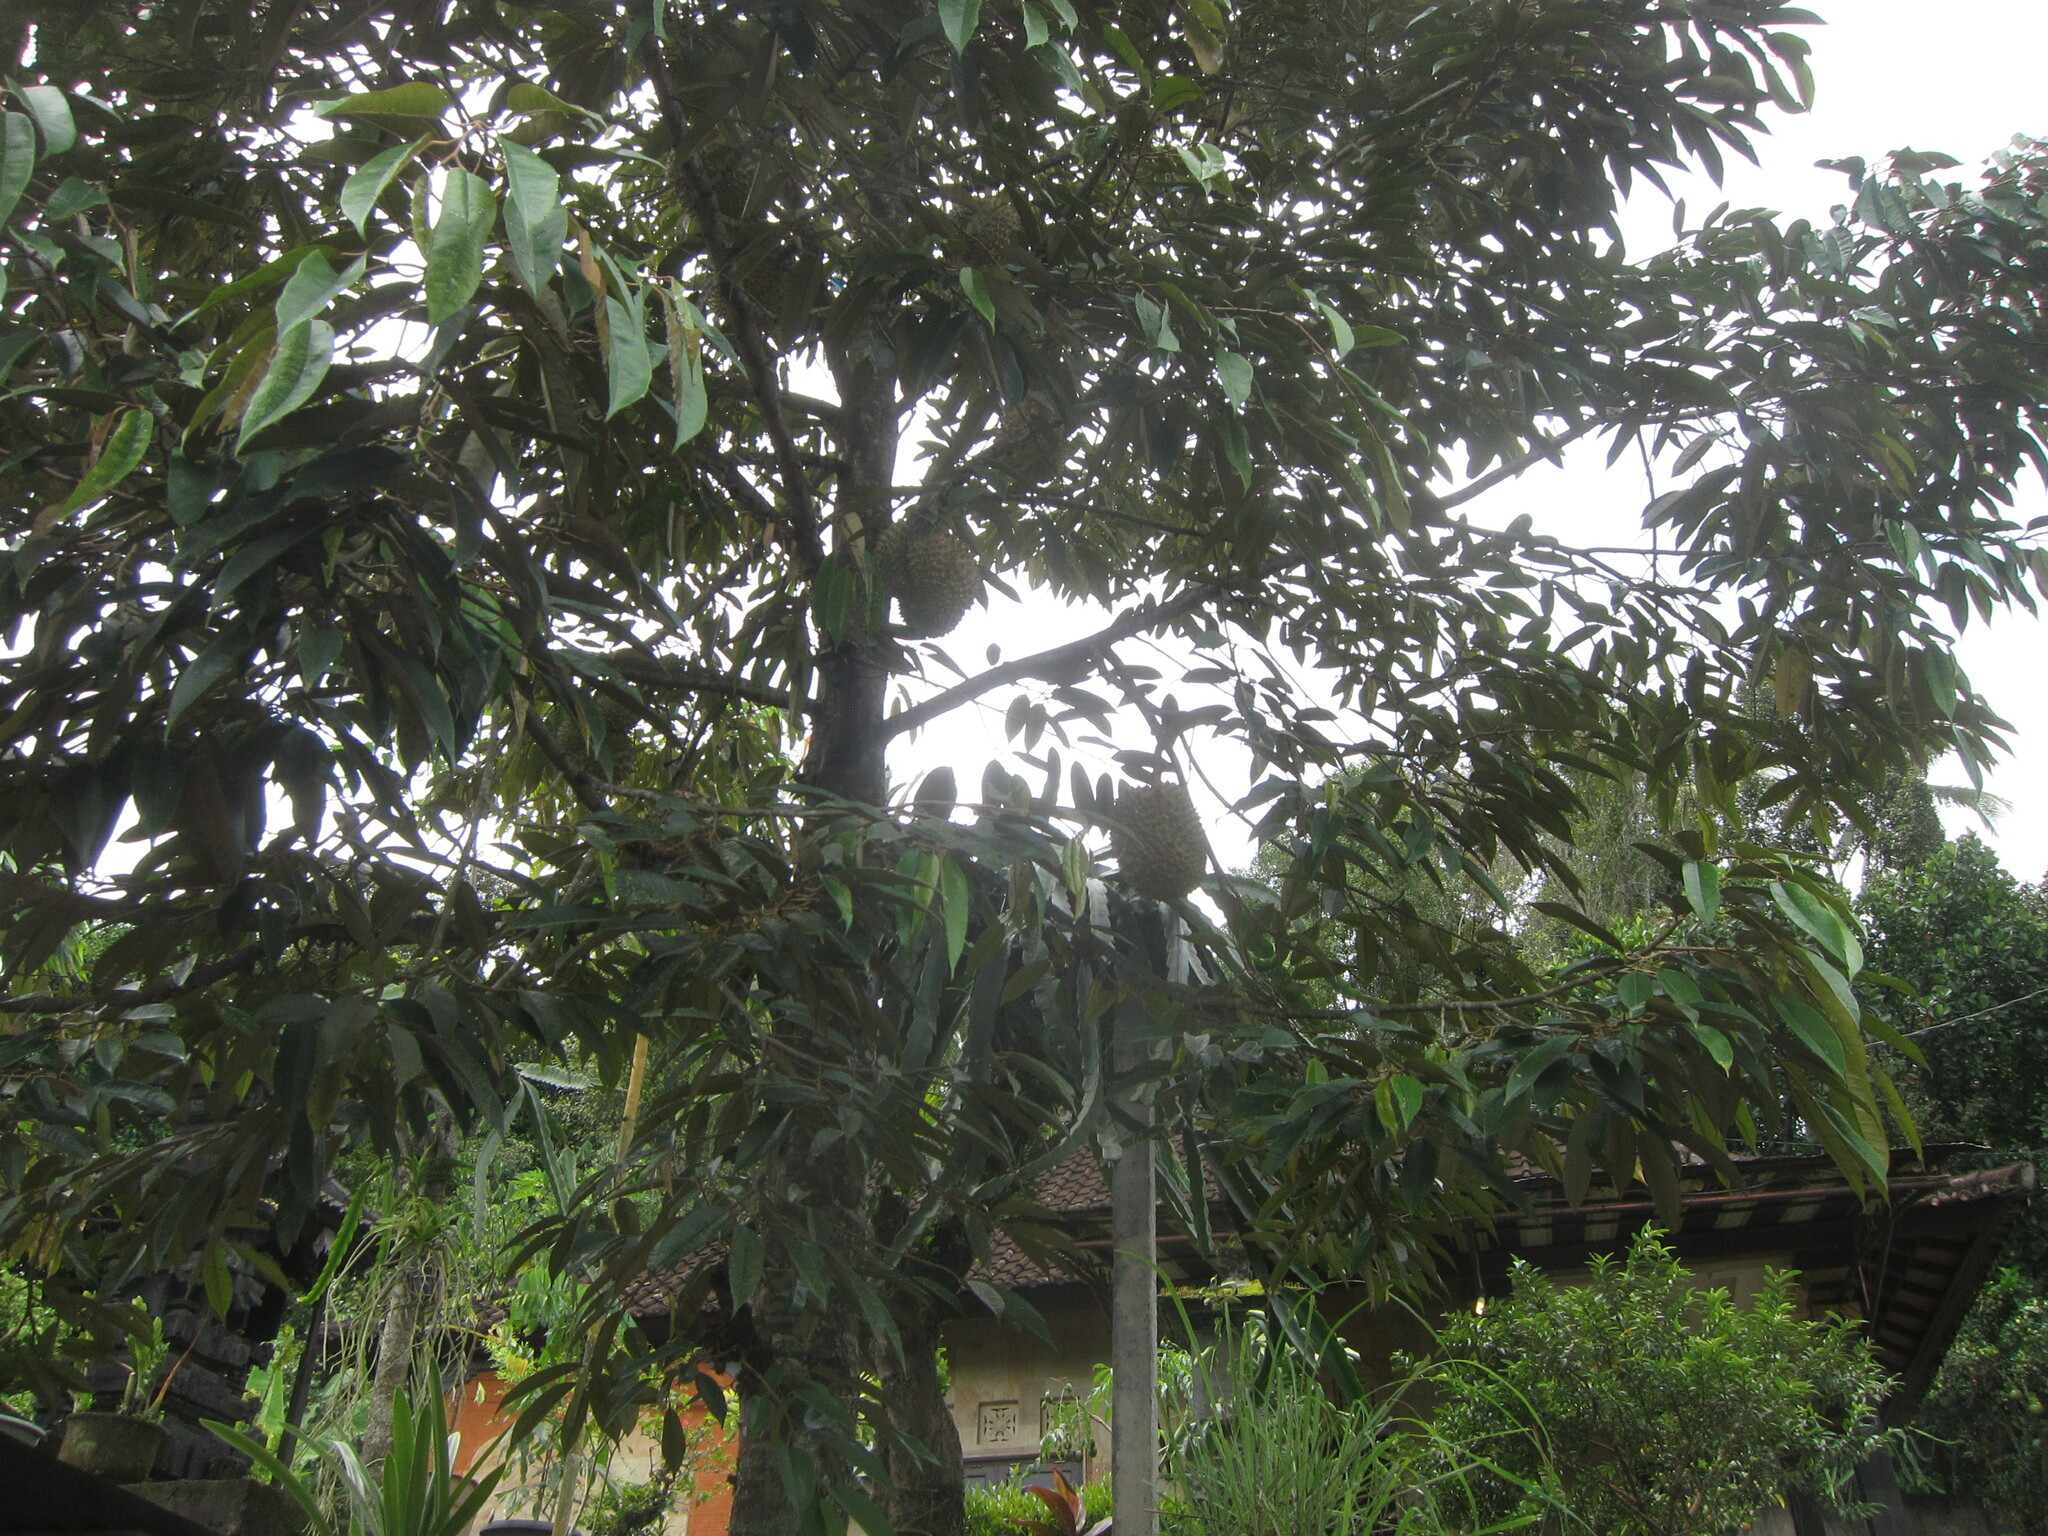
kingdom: Plantae
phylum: Tracheophyta
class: Magnoliopsida
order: Malvales
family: Malvaceae
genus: Durio
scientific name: Durio zibethinus
